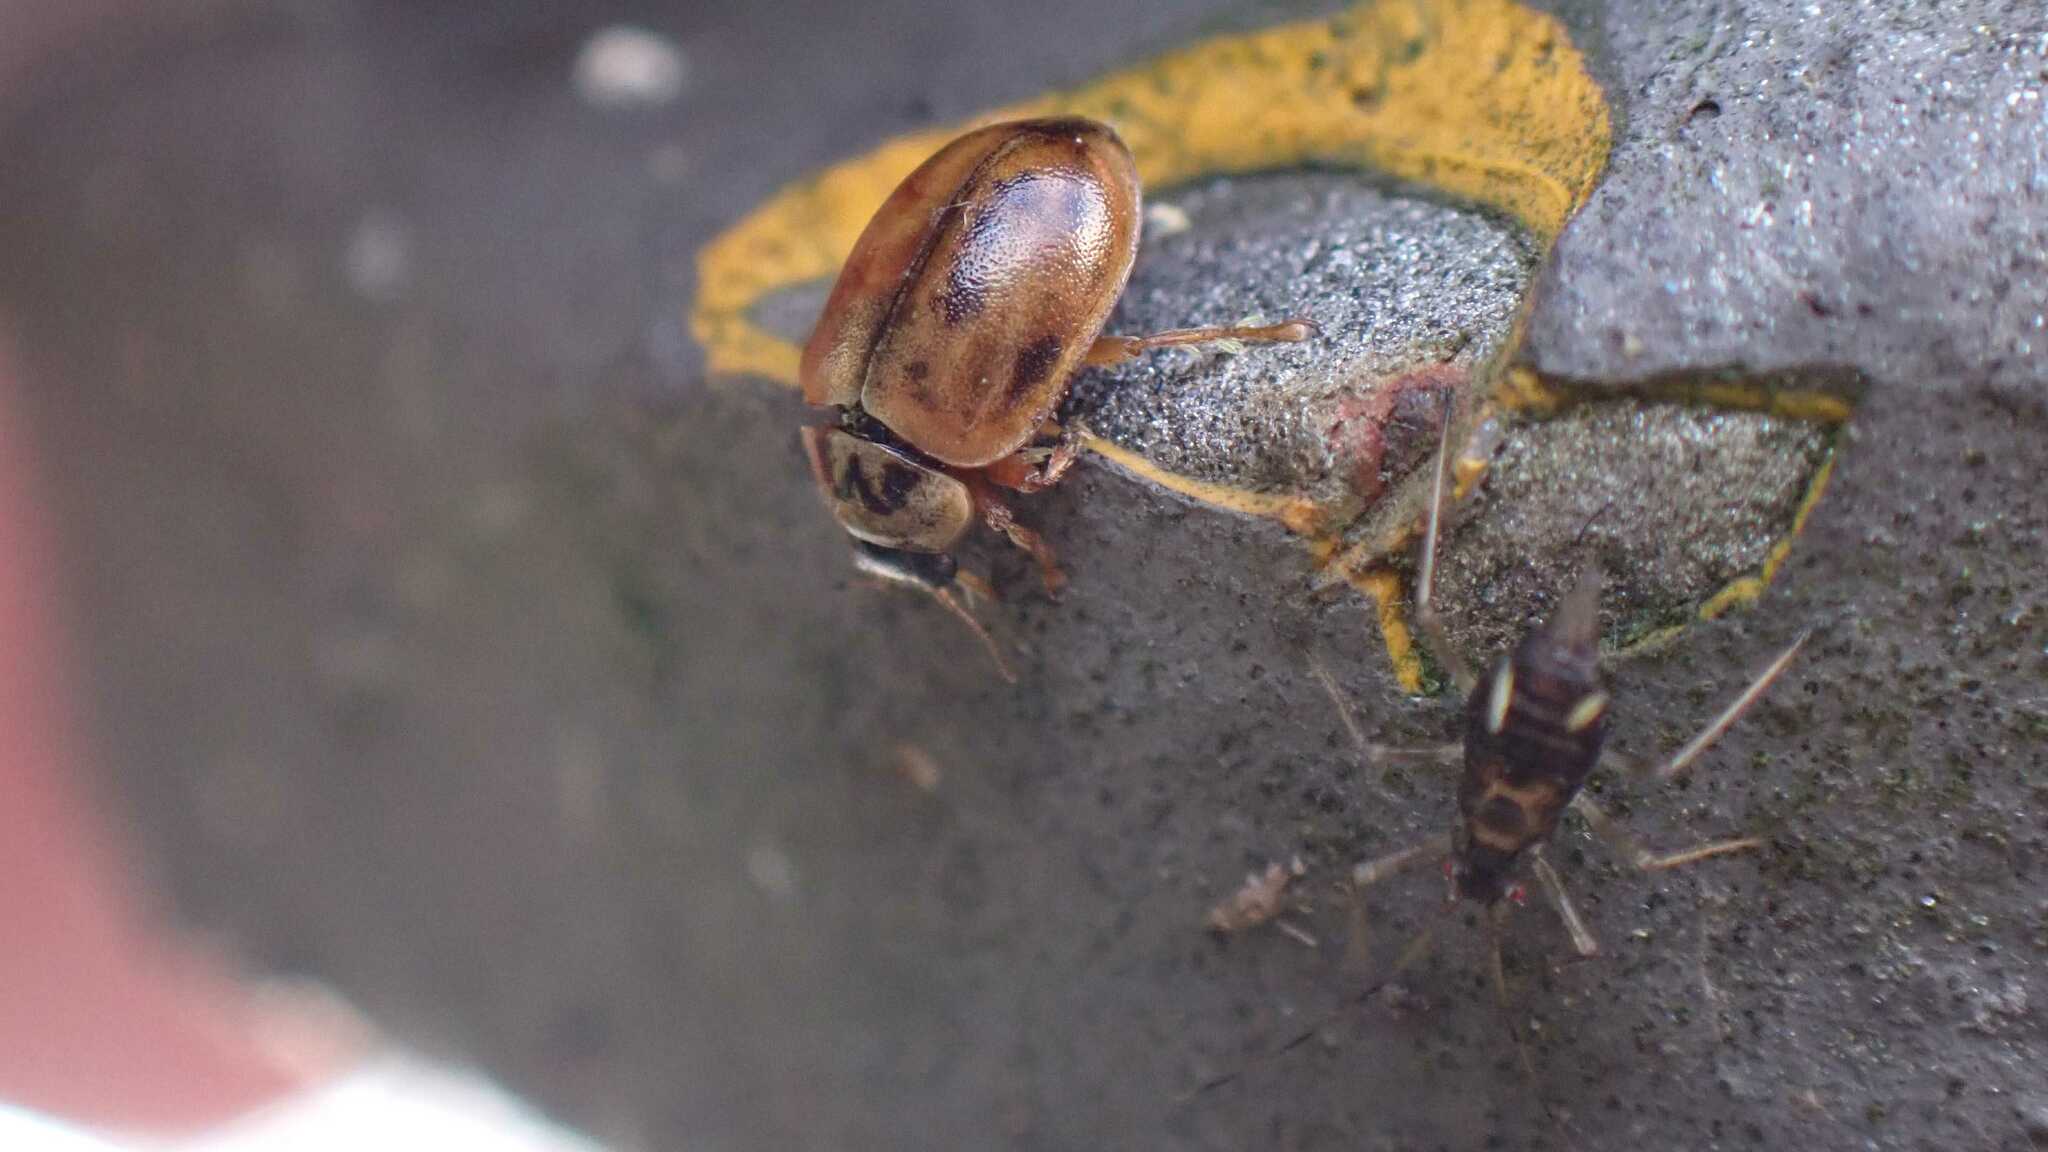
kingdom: Animalia
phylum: Arthropoda
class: Insecta
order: Coleoptera
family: Coccinellidae
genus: Aphidecta
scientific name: Aphidecta obliterata
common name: Larch ladybird
